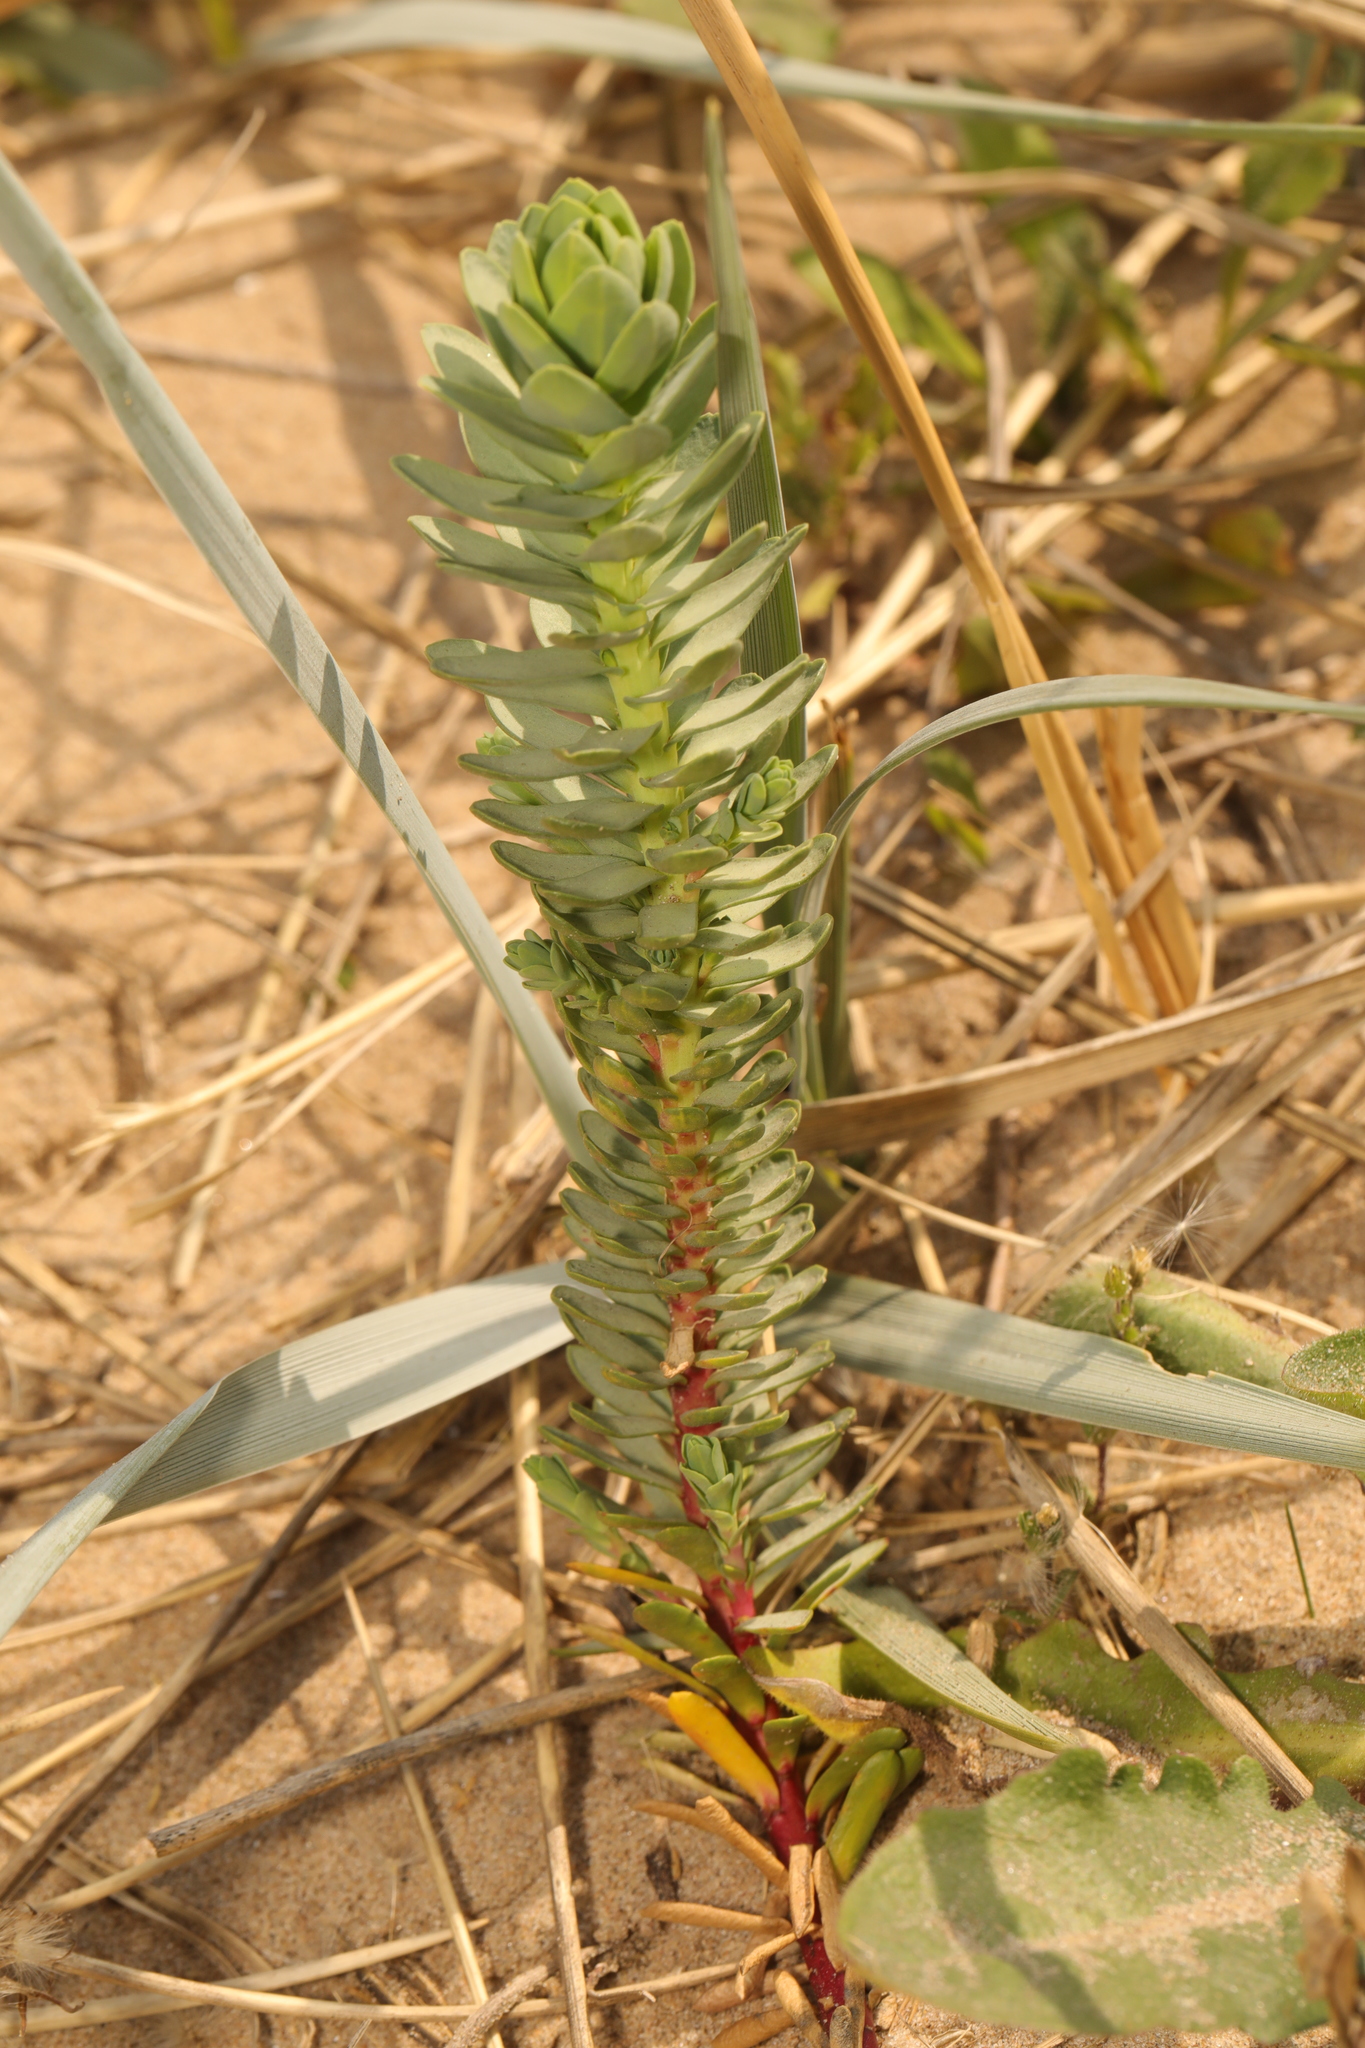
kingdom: Plantae
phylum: Tracheophyta
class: Magnoliopsida
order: Malpighiales
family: Euphorbiaceae
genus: Euphorbia
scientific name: Euphorbia paralias
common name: Sea spurge
